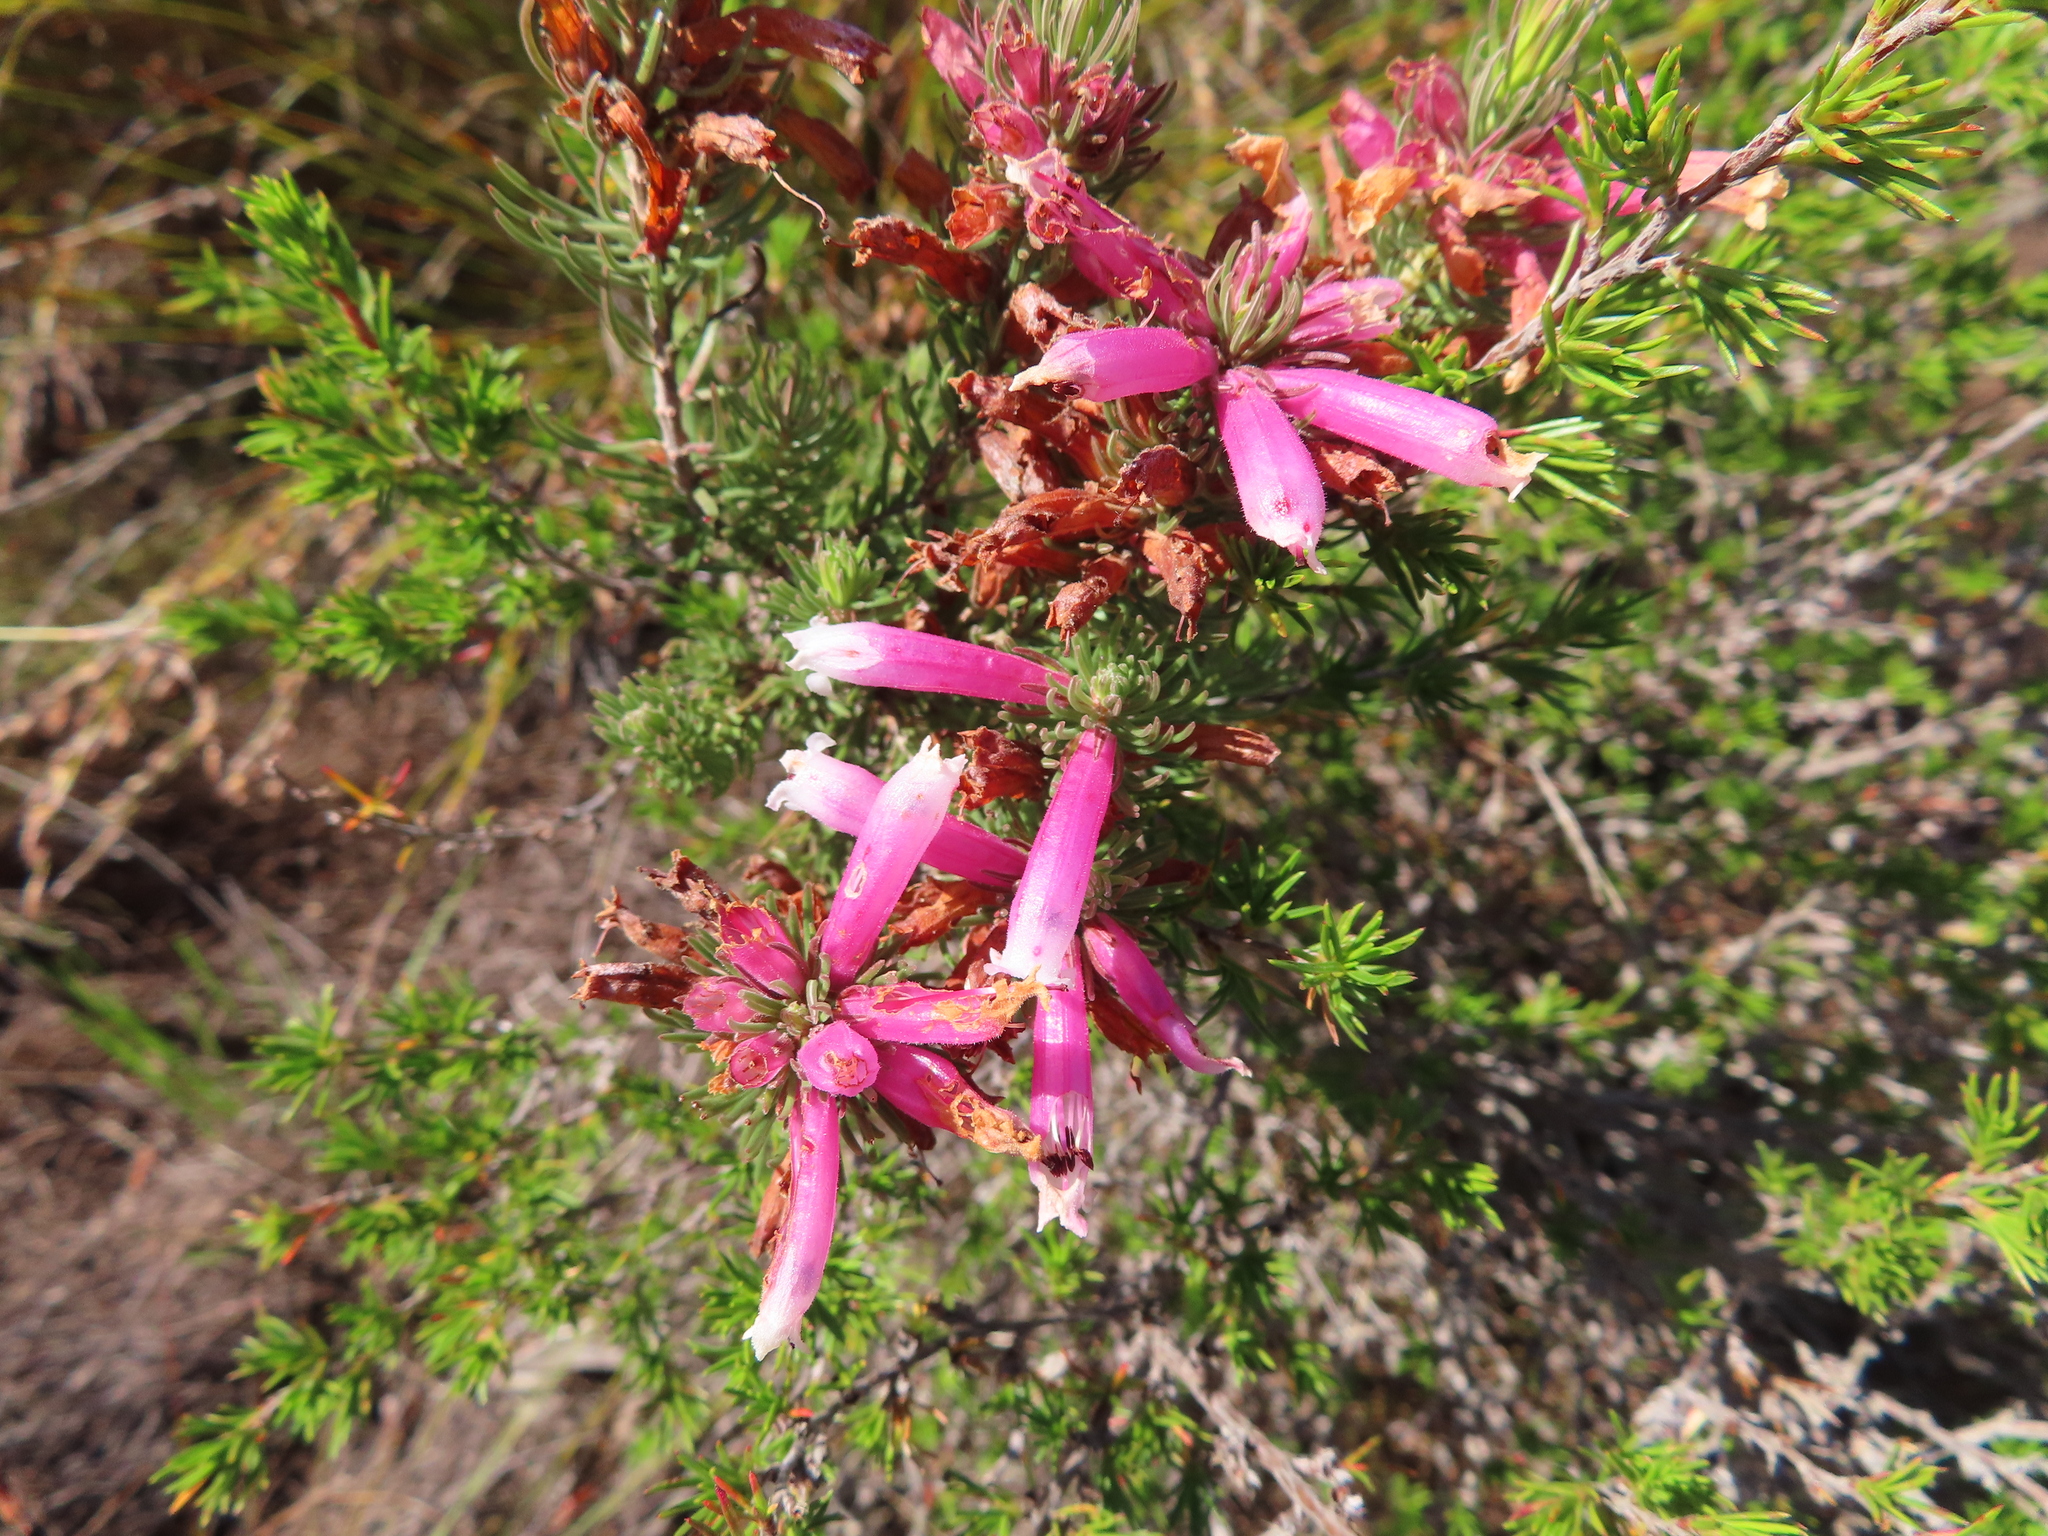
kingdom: Plantae
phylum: Tracheophyta
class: Magnoliopsida
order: Ericales
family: Ericaceae
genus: Erica
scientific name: Erica viscaria
